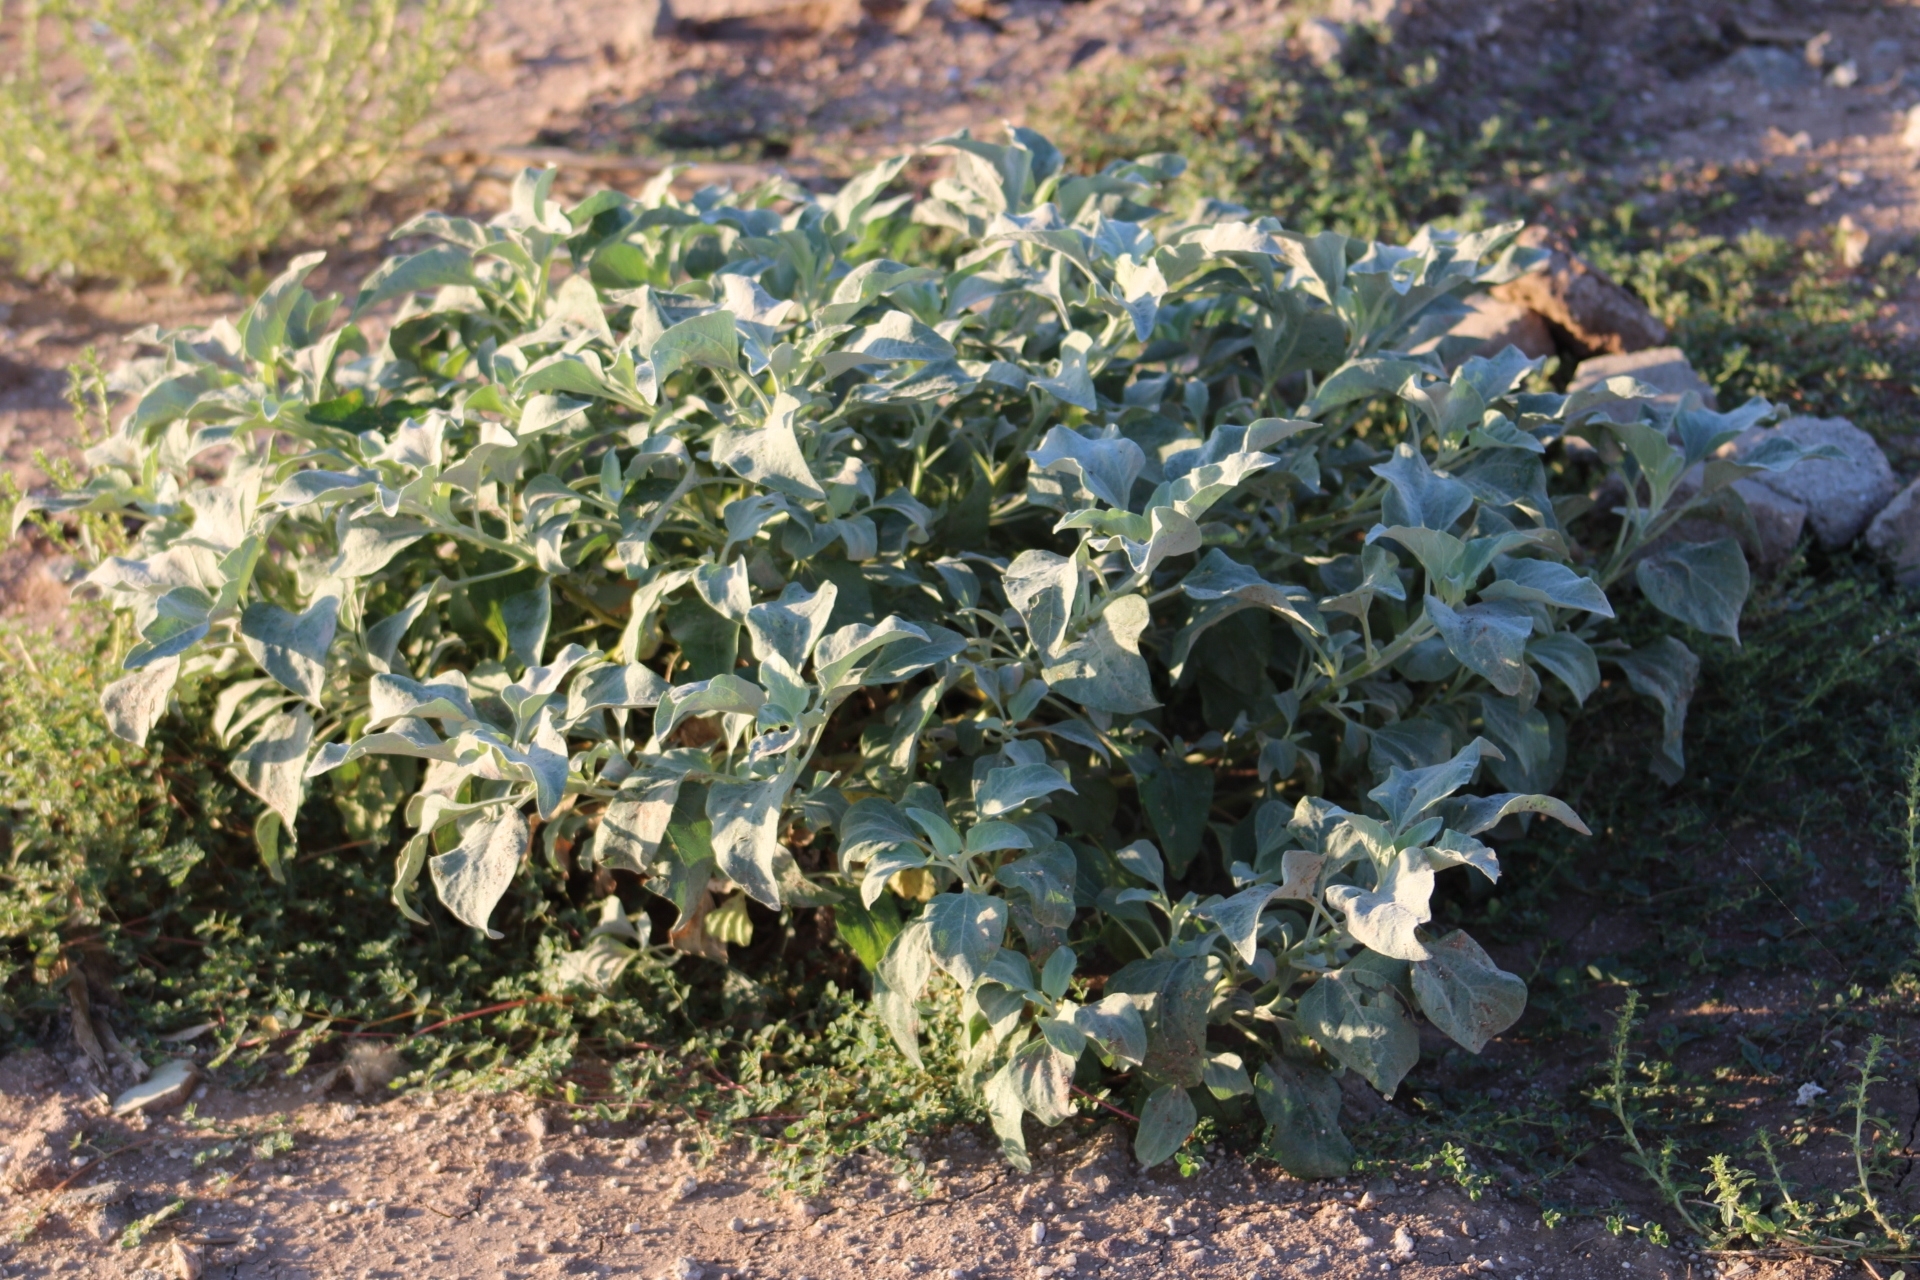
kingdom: Plantae
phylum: Tracheophyta
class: Magnoliopsida
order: Asterales
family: Asteraceae
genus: Encelia
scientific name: Encelia farinosa
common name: Brittlebush
